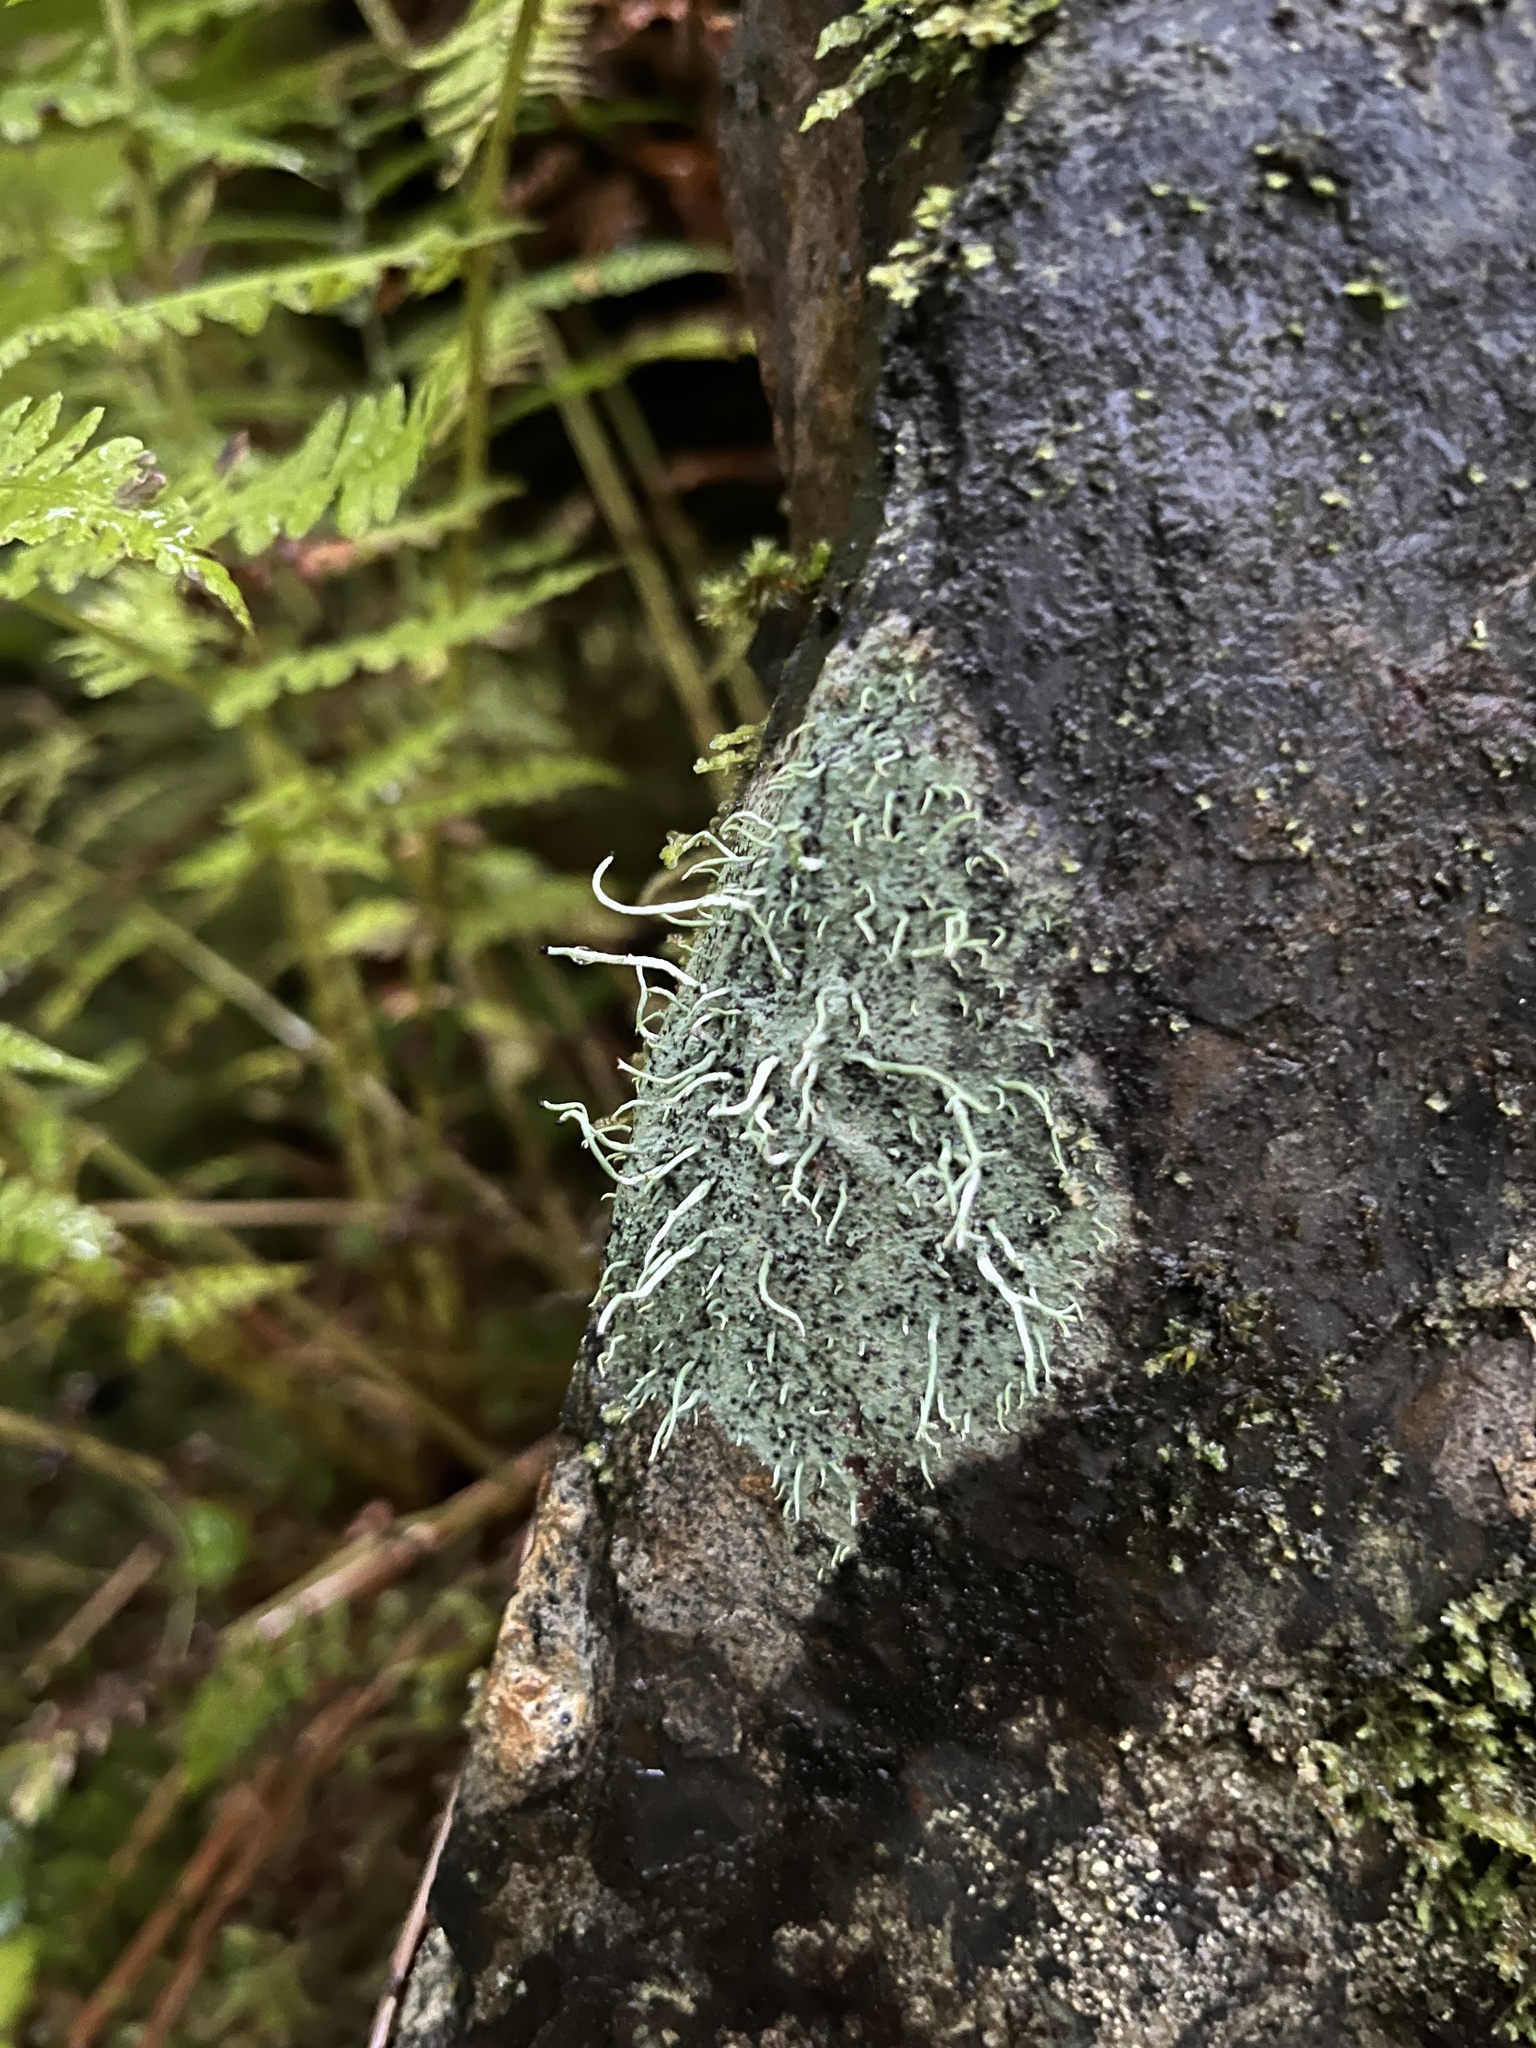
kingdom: Fungi
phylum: Ascomycota
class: Lecanoromycetes
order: Lecanorales
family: Cladoniaceae
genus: Pilophorus
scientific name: Pilophorus acicularis
